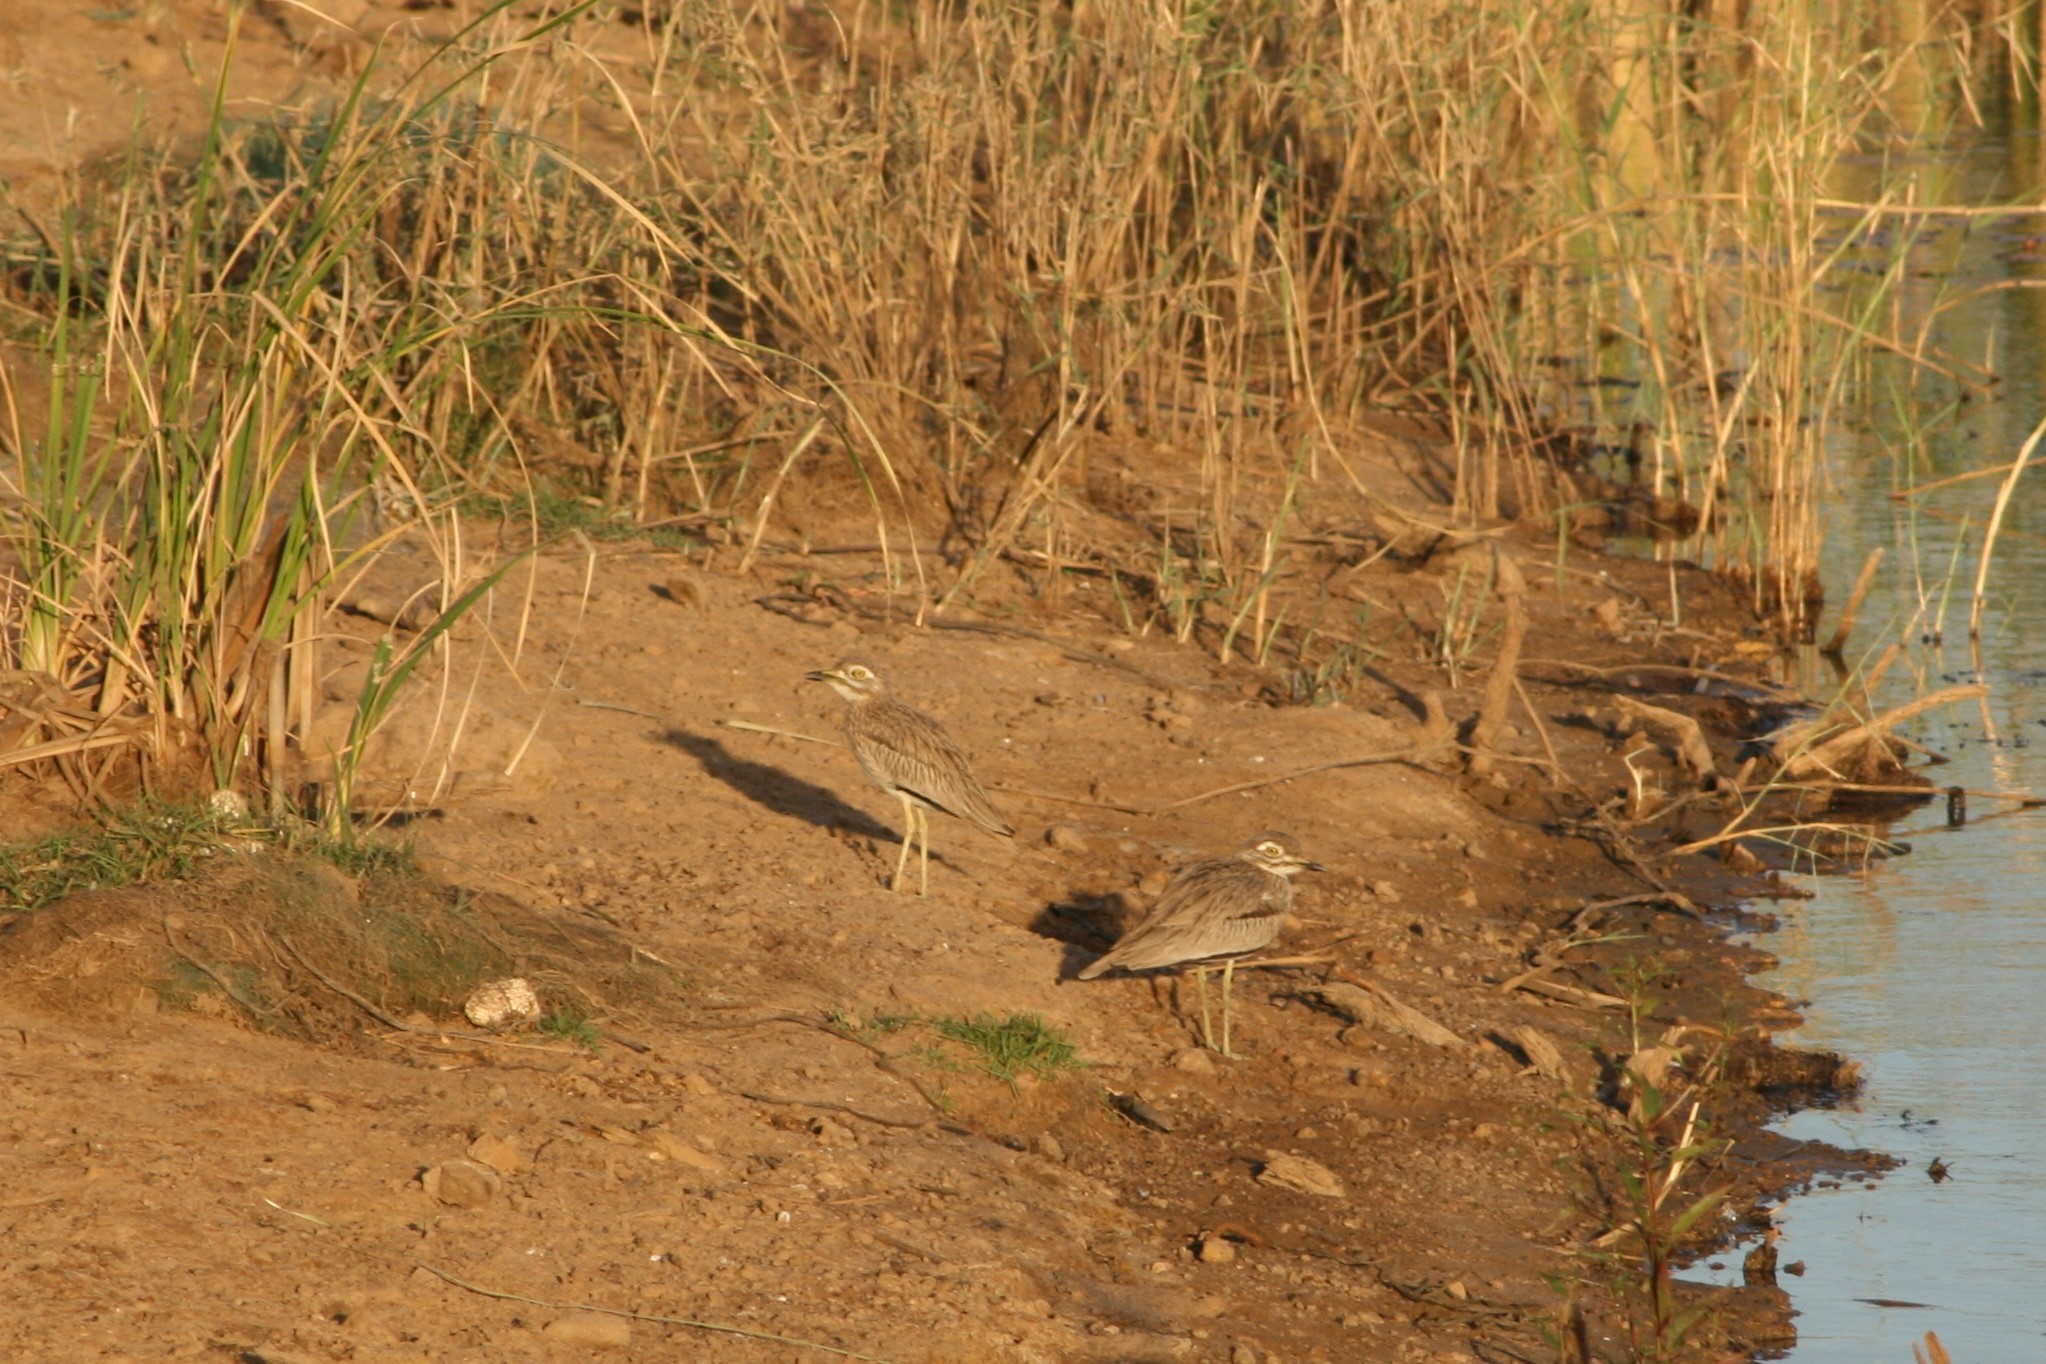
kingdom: Animalia
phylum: Chordata
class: Aves
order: Charadriiformes
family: Burhinidae
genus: Burhinus
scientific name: Burhinus senegalensis
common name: Senegal thick-knee
